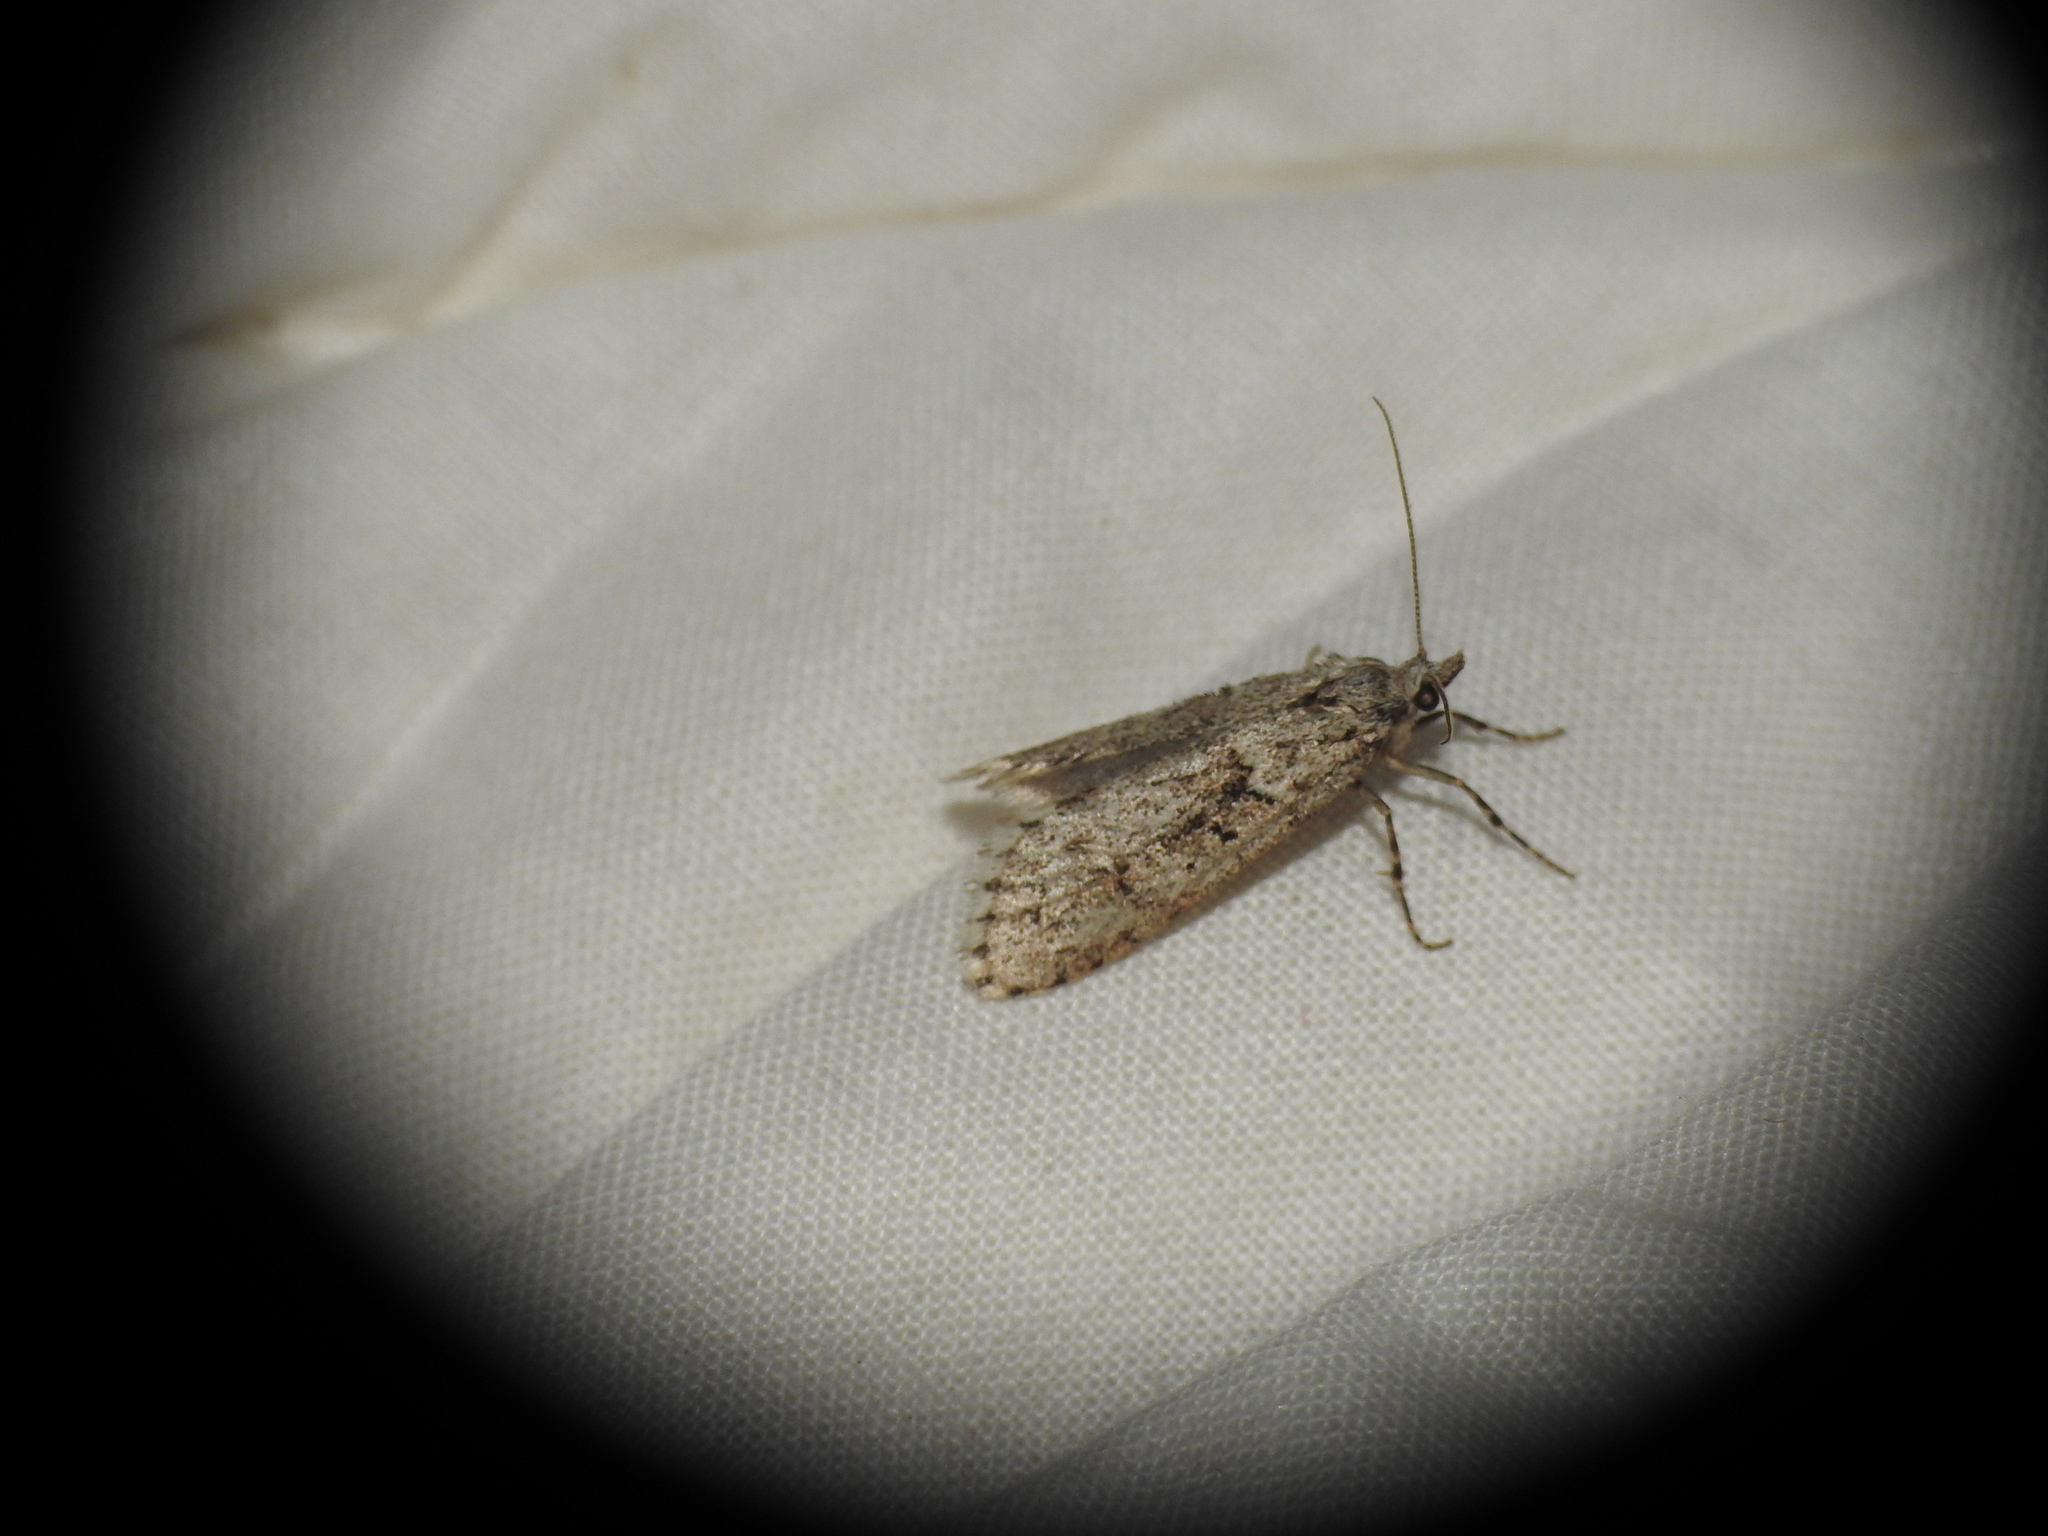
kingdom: Animalia
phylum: Arthropoda
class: Insecta
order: Lepidoptera
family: Lypusidae
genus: Diurnea
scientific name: Diurnea fagella
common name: March tubic
